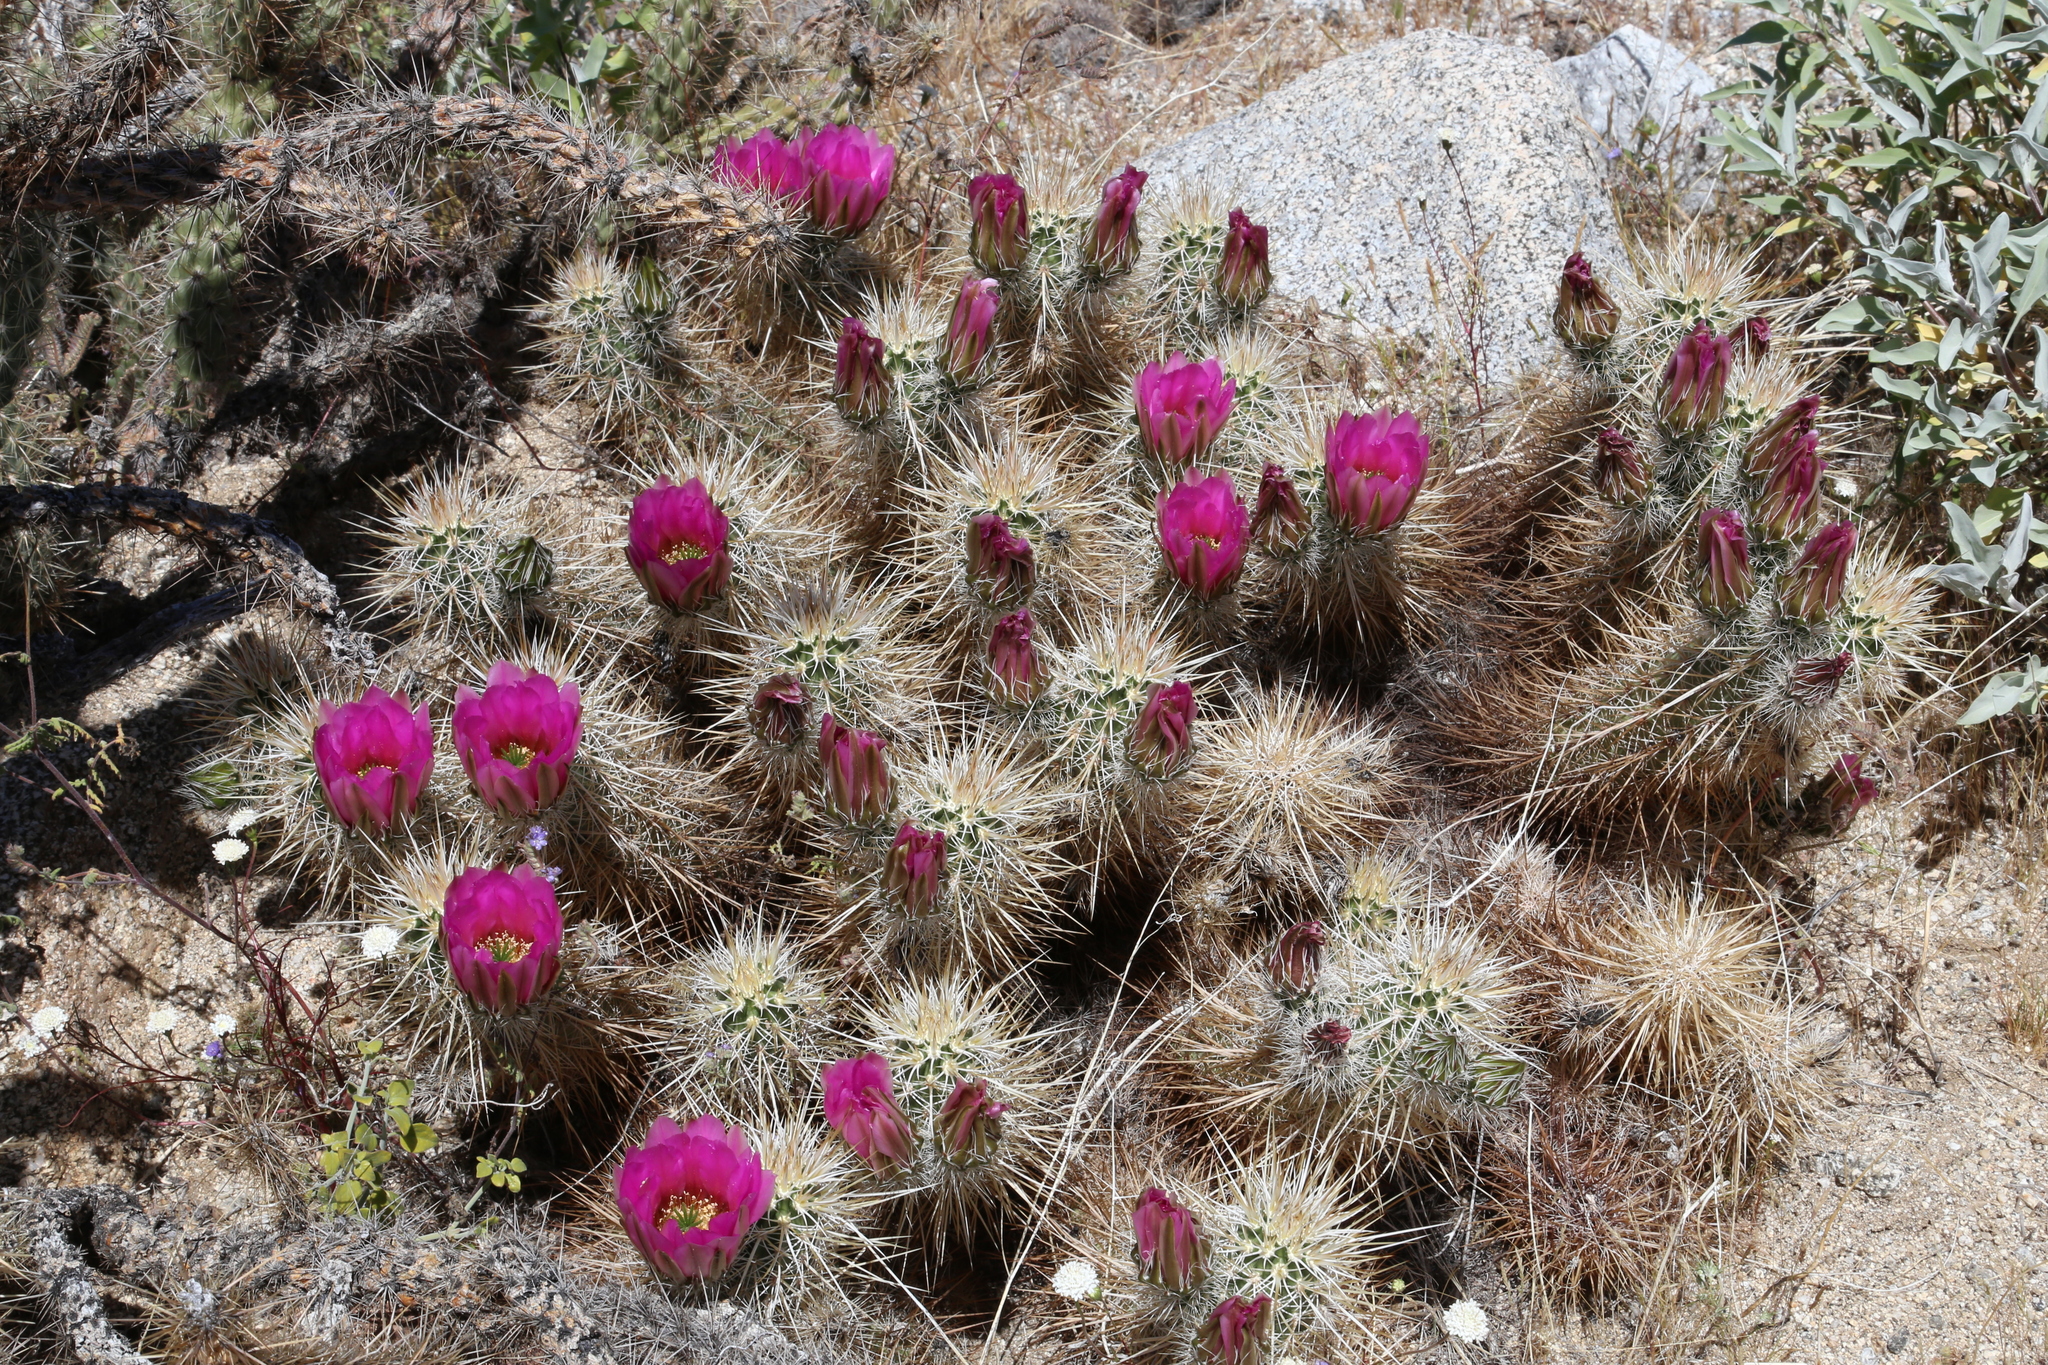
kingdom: Plantae
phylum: Tracheophyta
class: Magnoliopsida
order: Caryophyllales
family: Cactaceae
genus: Echinocereus
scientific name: Echinocereus engelmannii
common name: Engelmann's hedgehog cactus
